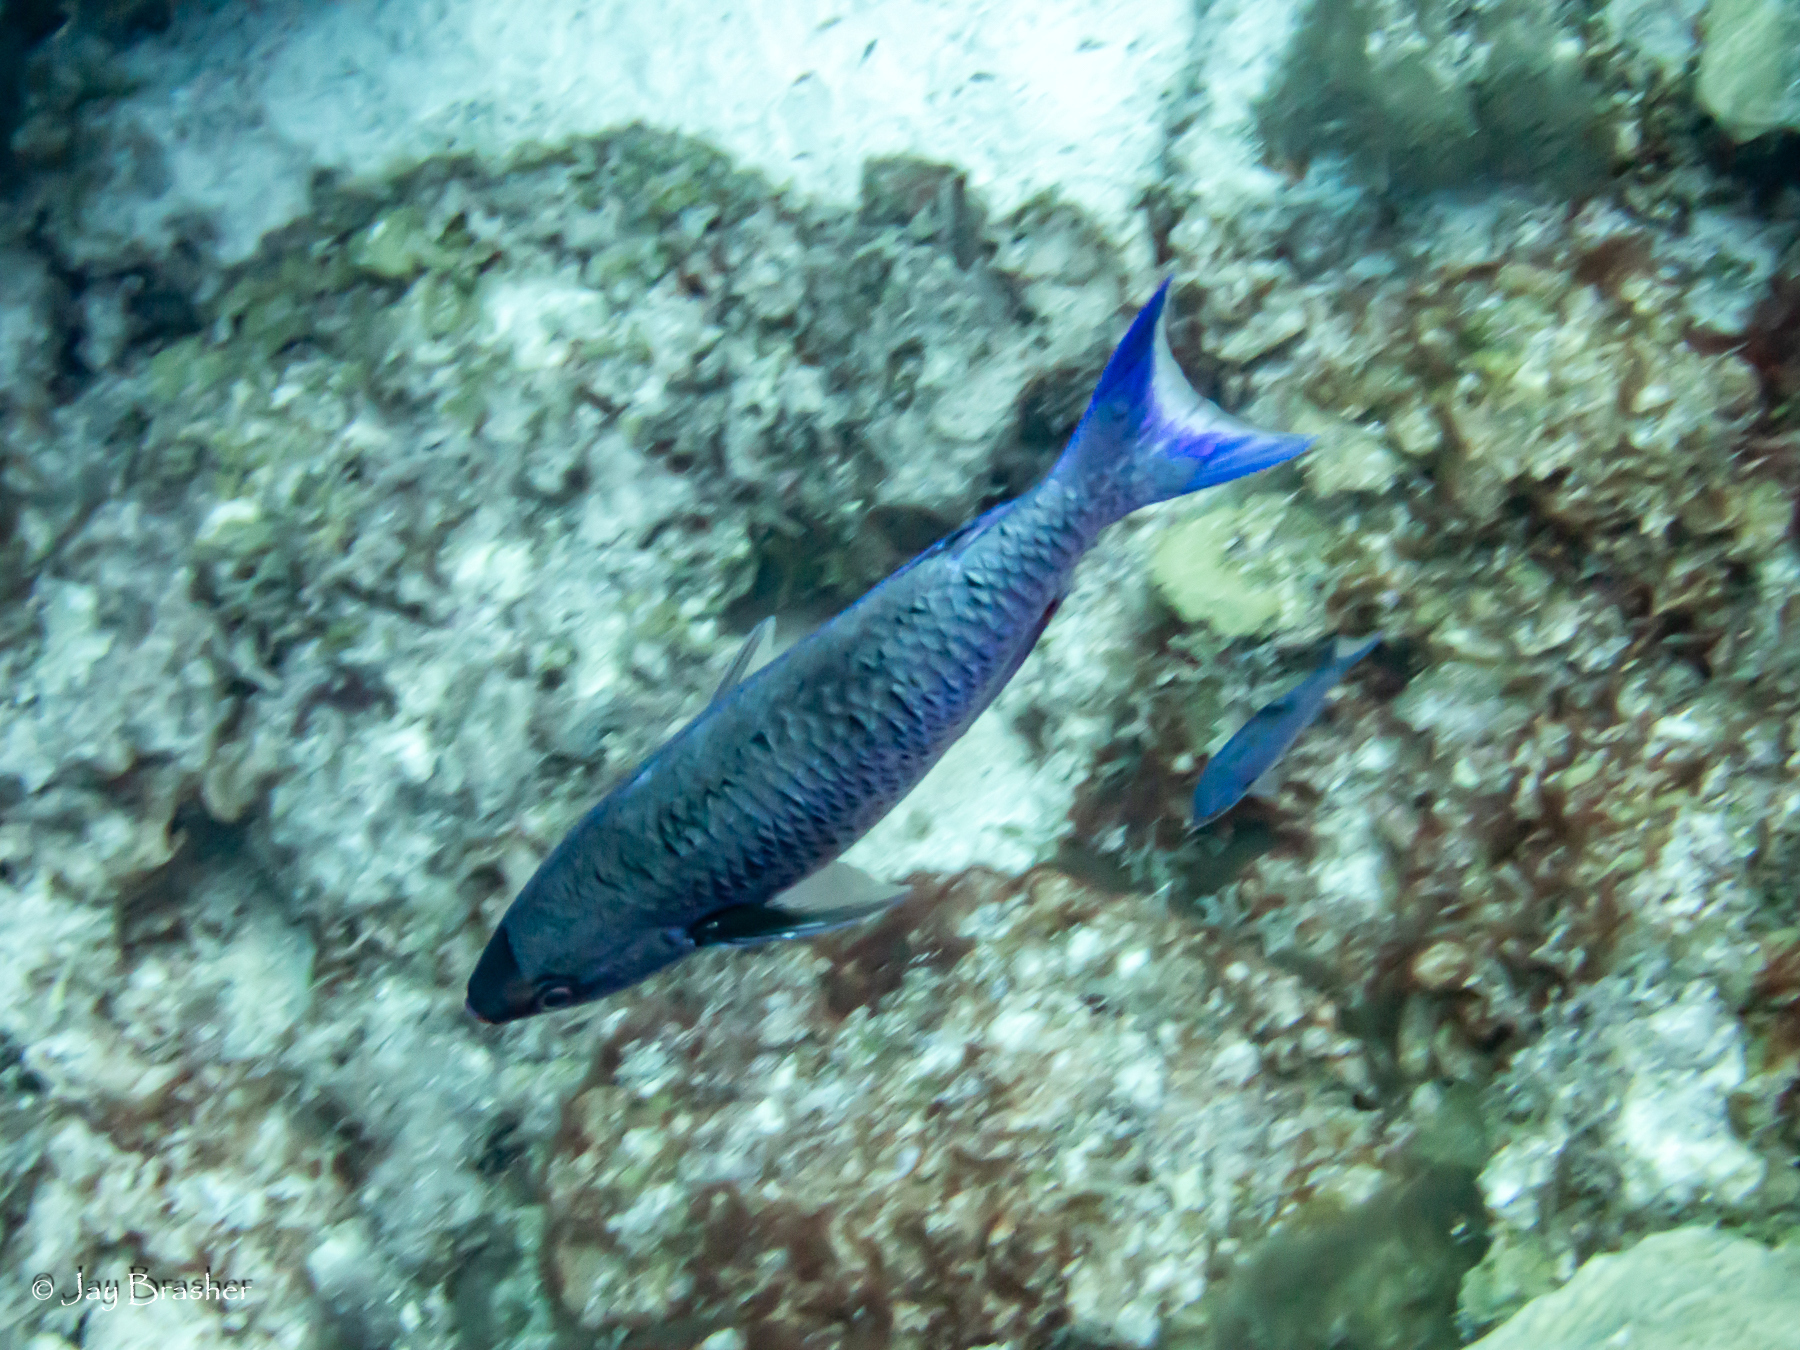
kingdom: Animalia
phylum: Chordata
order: Perciformes
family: Labridae
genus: Bodianus
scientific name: Bodianus
